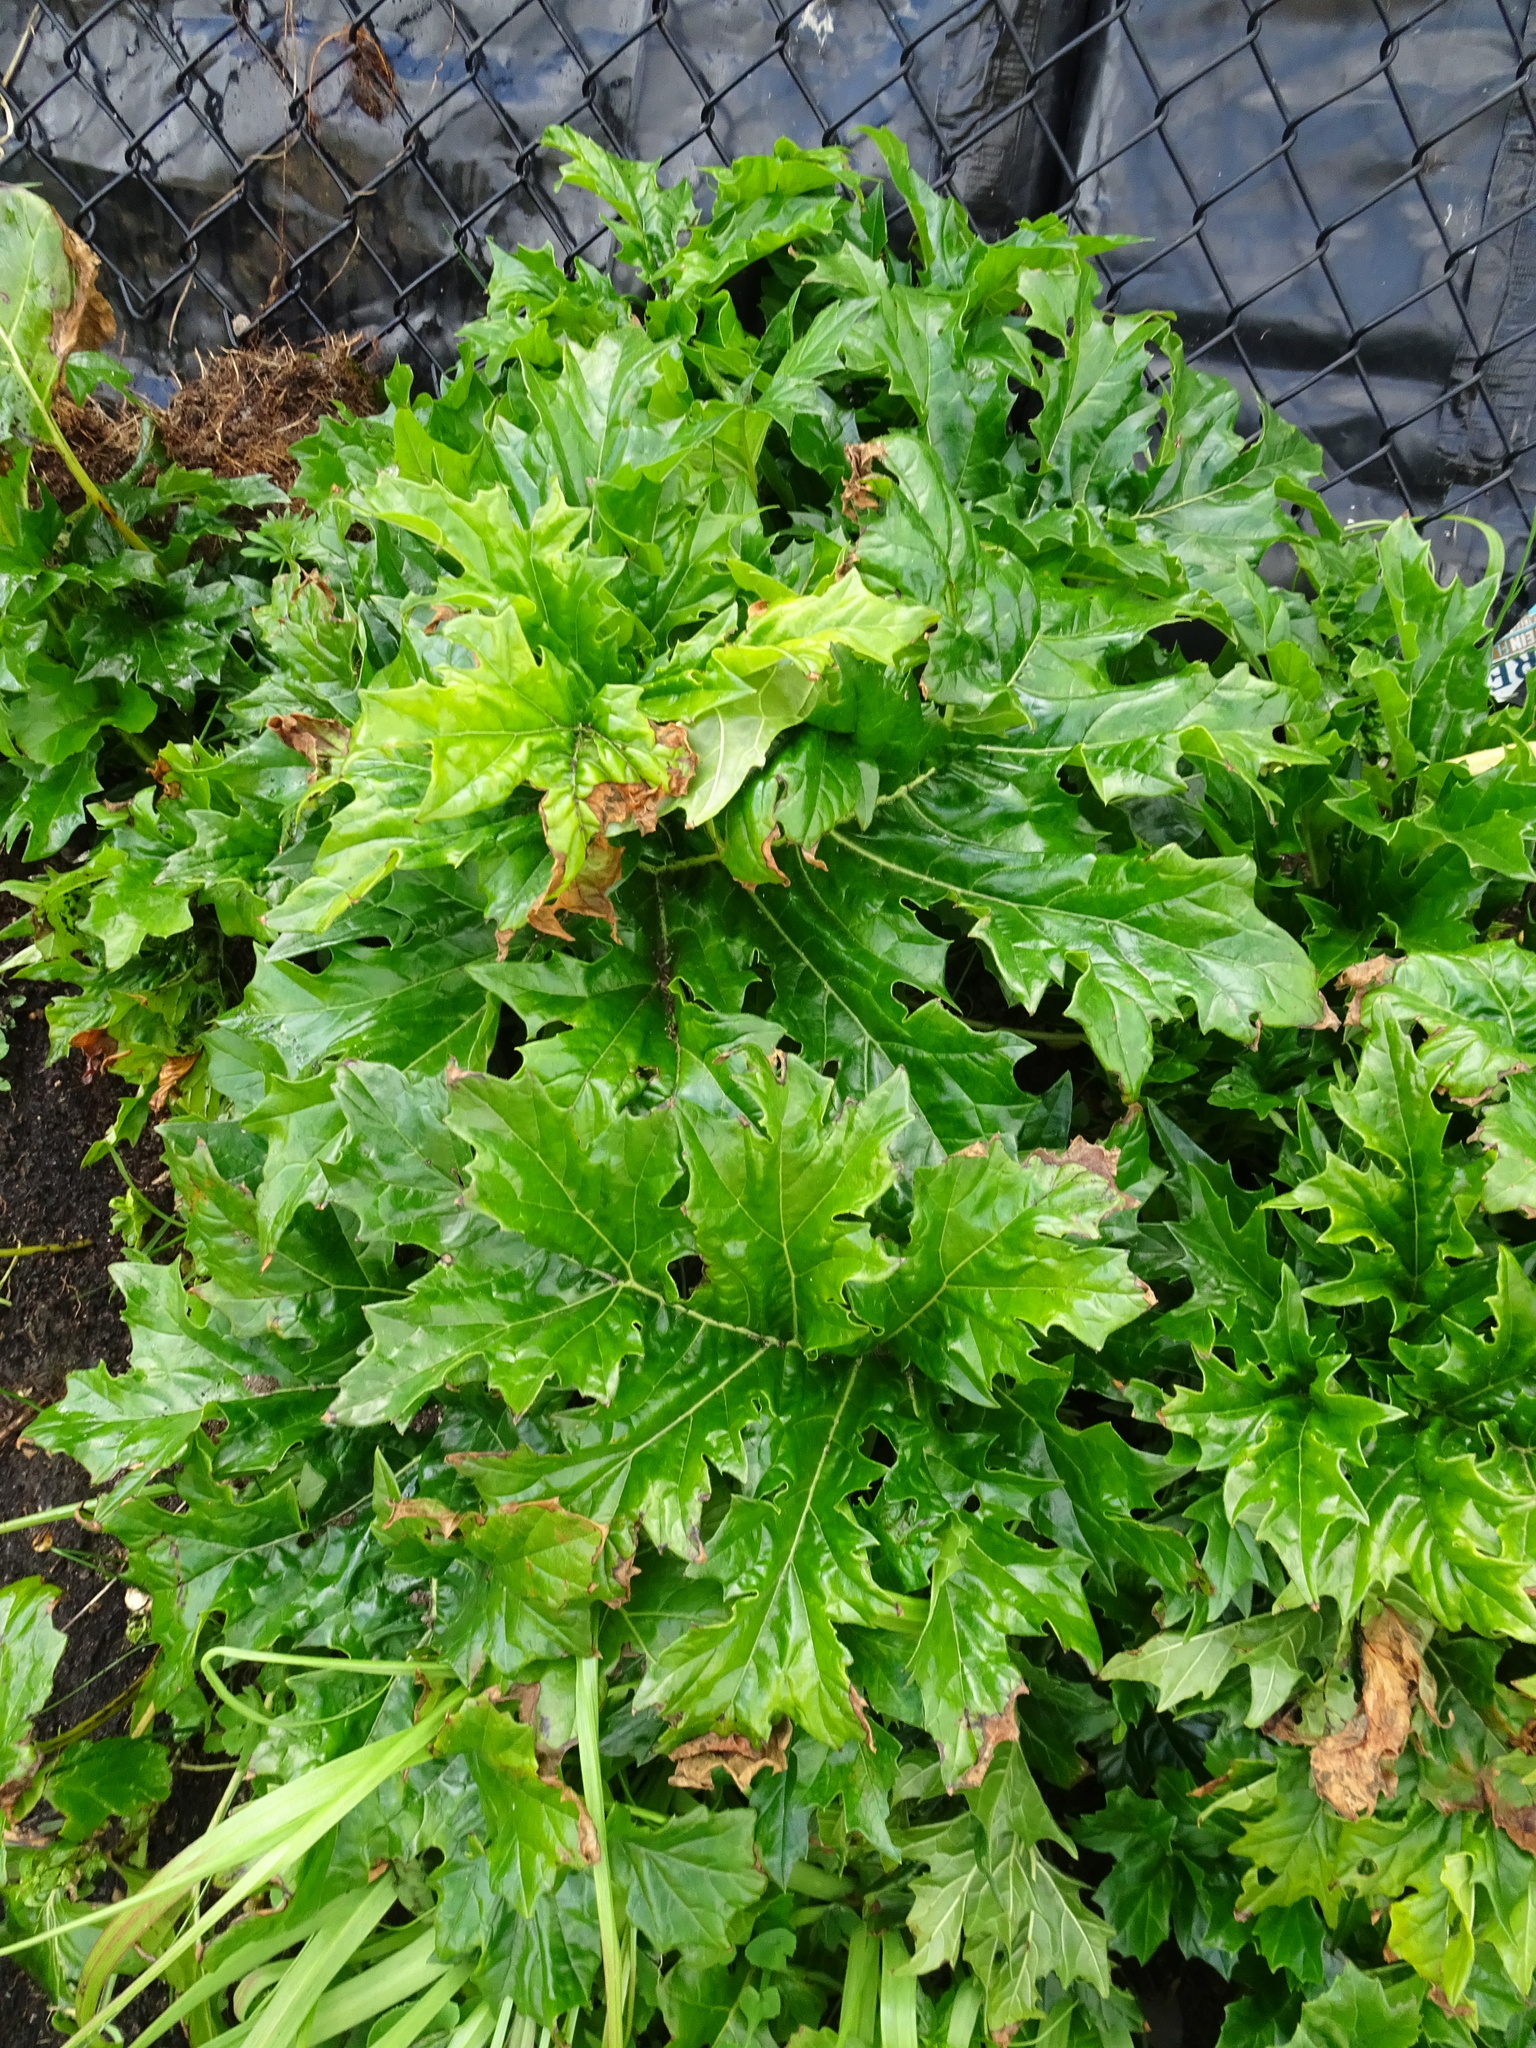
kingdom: Plantae
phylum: Tracheophyta
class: Magnoliopsida
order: Lamiales
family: Acanthaceae
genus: Acanthus
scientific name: Acanthus mollis
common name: Bear's-breech
